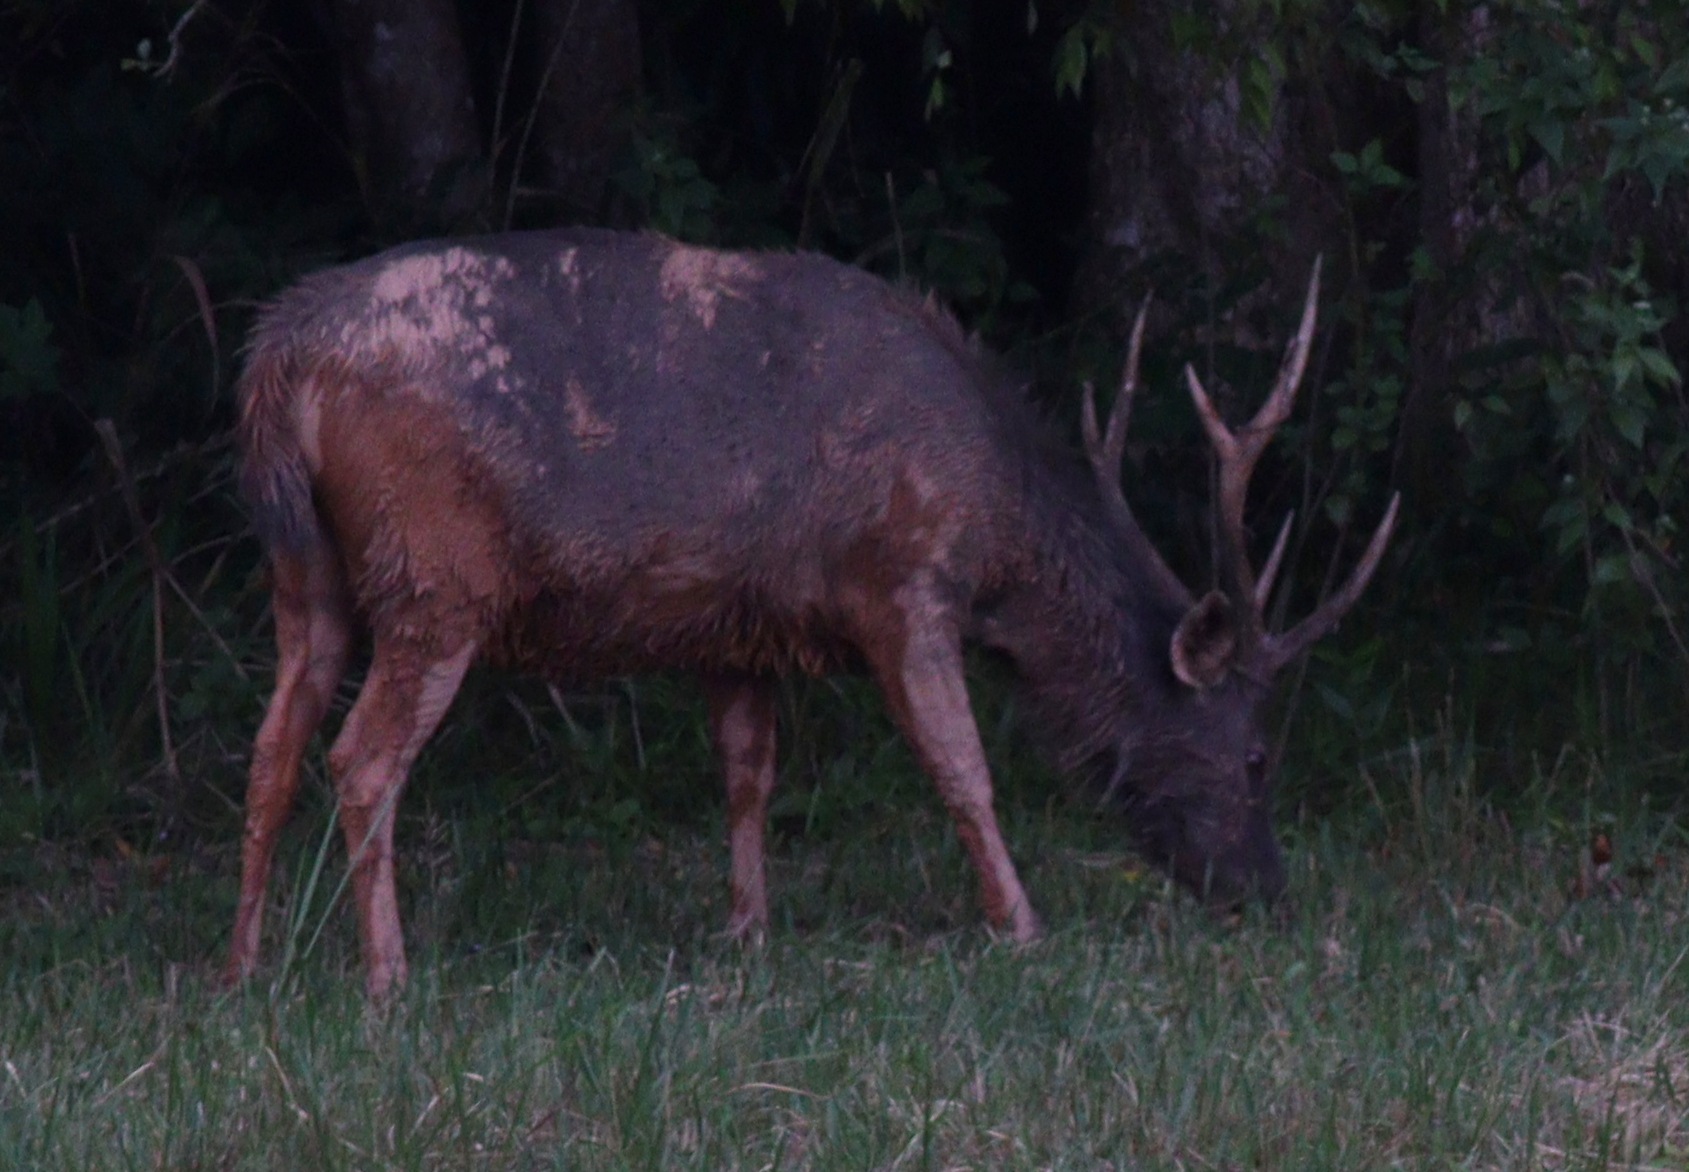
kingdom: Animalia
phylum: Chordata
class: Mammalia
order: Artiodactyla
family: Cervidae
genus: Rusa
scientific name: Rusa unicolor
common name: Sambar
